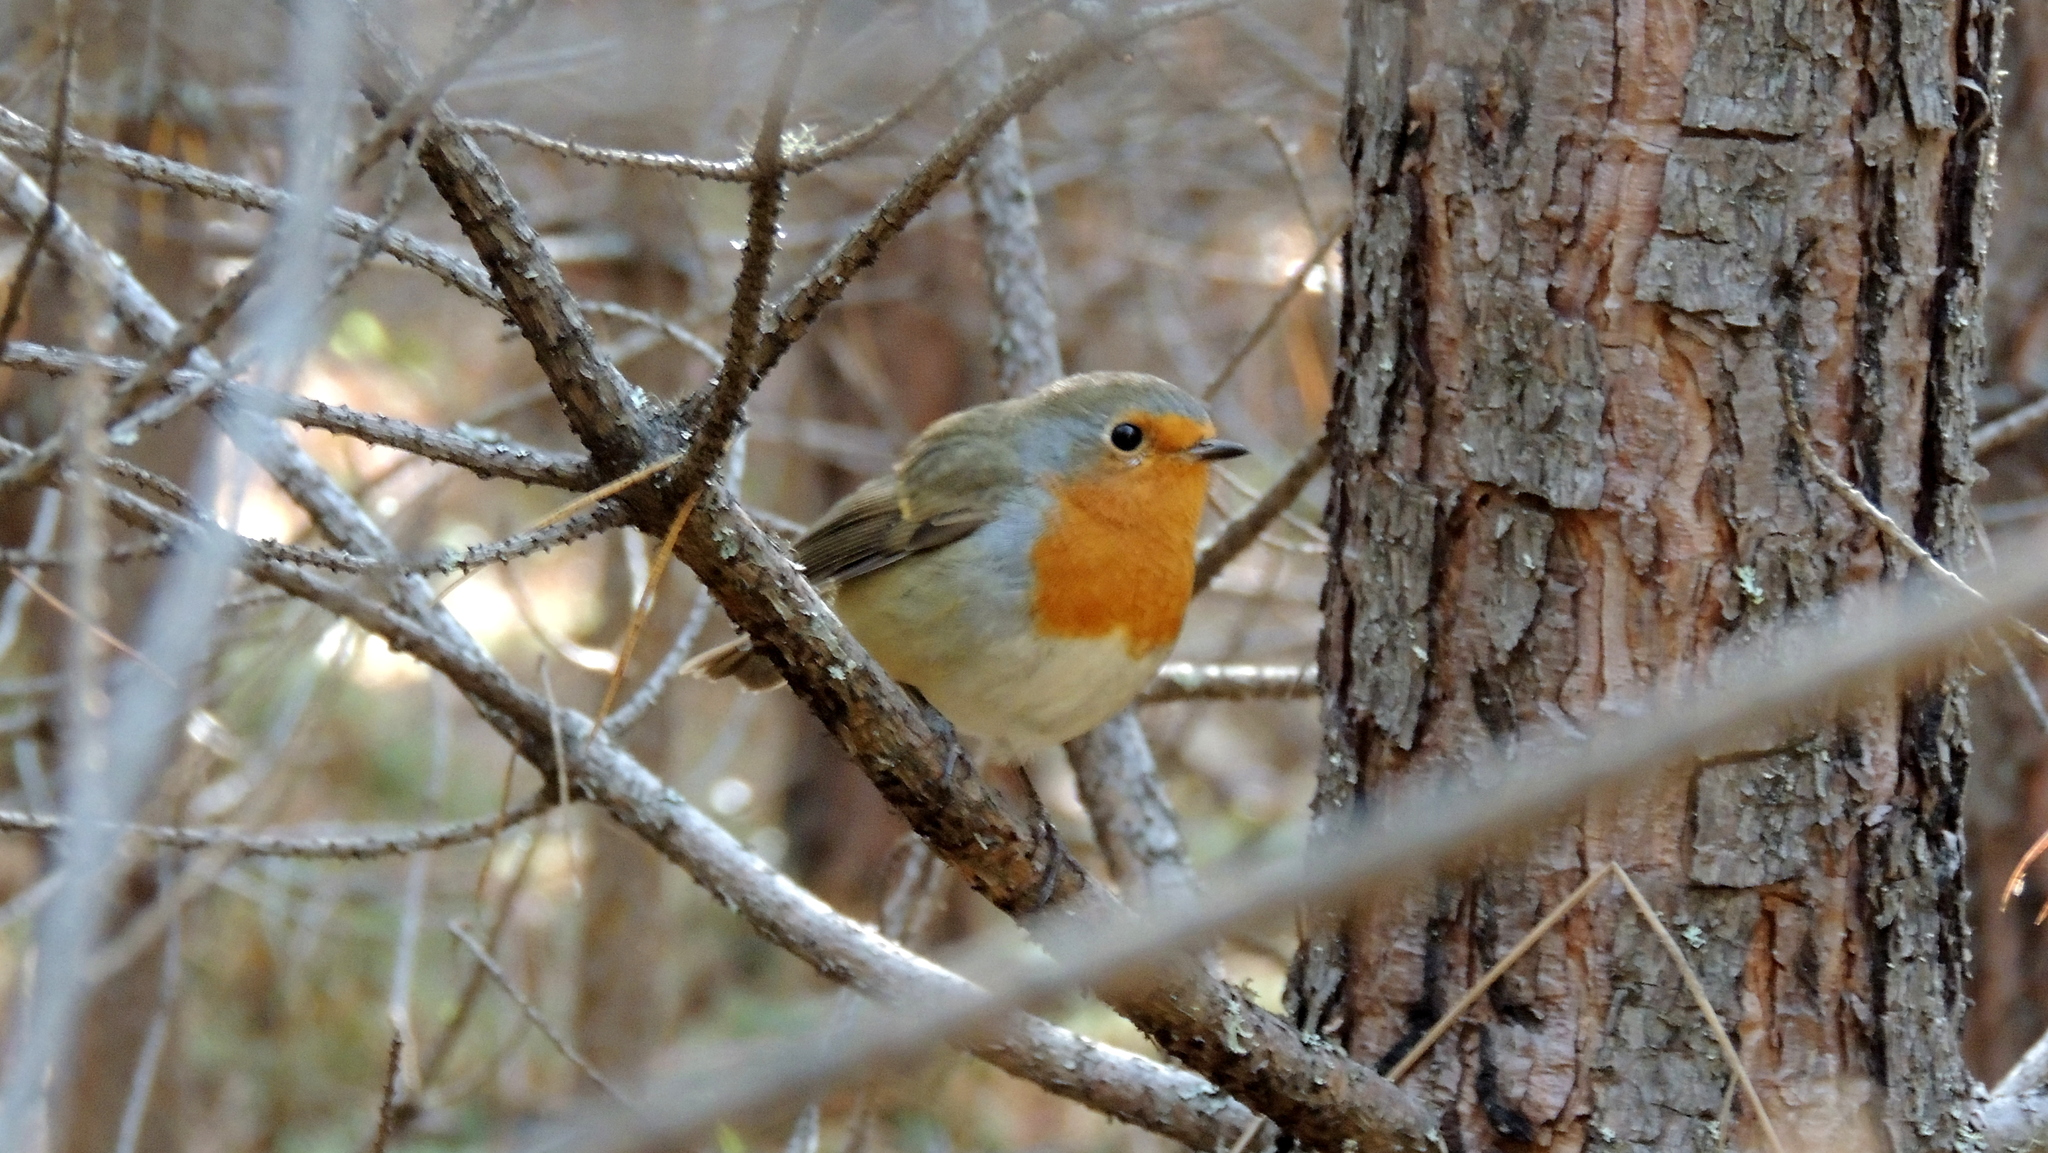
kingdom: Animalia
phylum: Chordata
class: Aves
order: Passeriformes
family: Muscicapidae
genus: Erithacus
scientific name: Erithacus rubecula
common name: European robin
